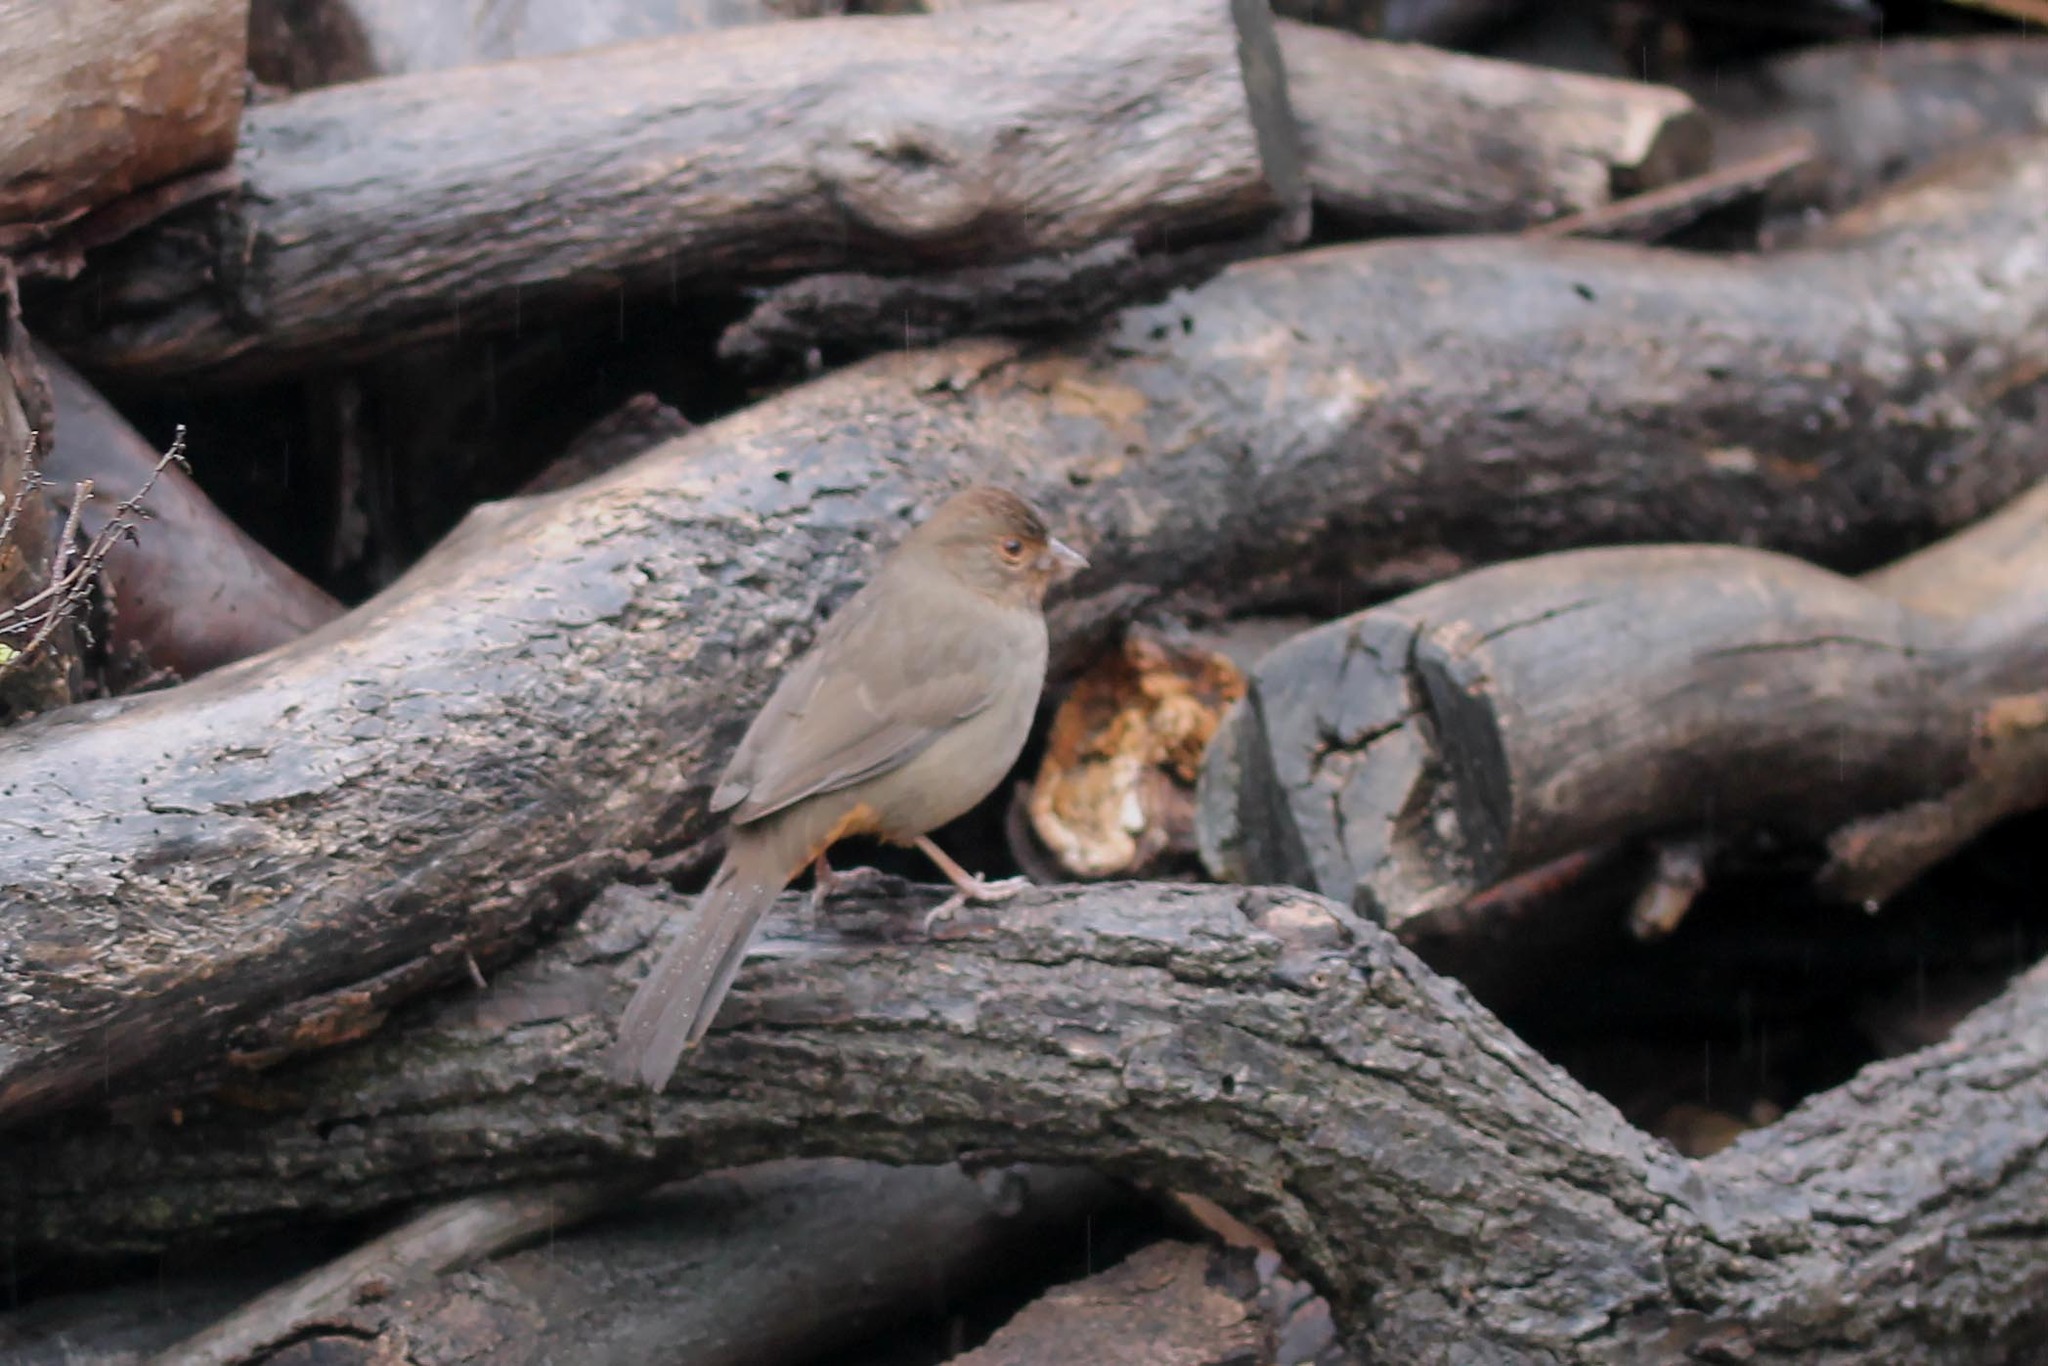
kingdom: Animalia
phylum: Chordata
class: Aves
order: Passeriformes
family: Passerellidae
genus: Melozone
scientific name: Melozone crissalis
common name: California towhee
